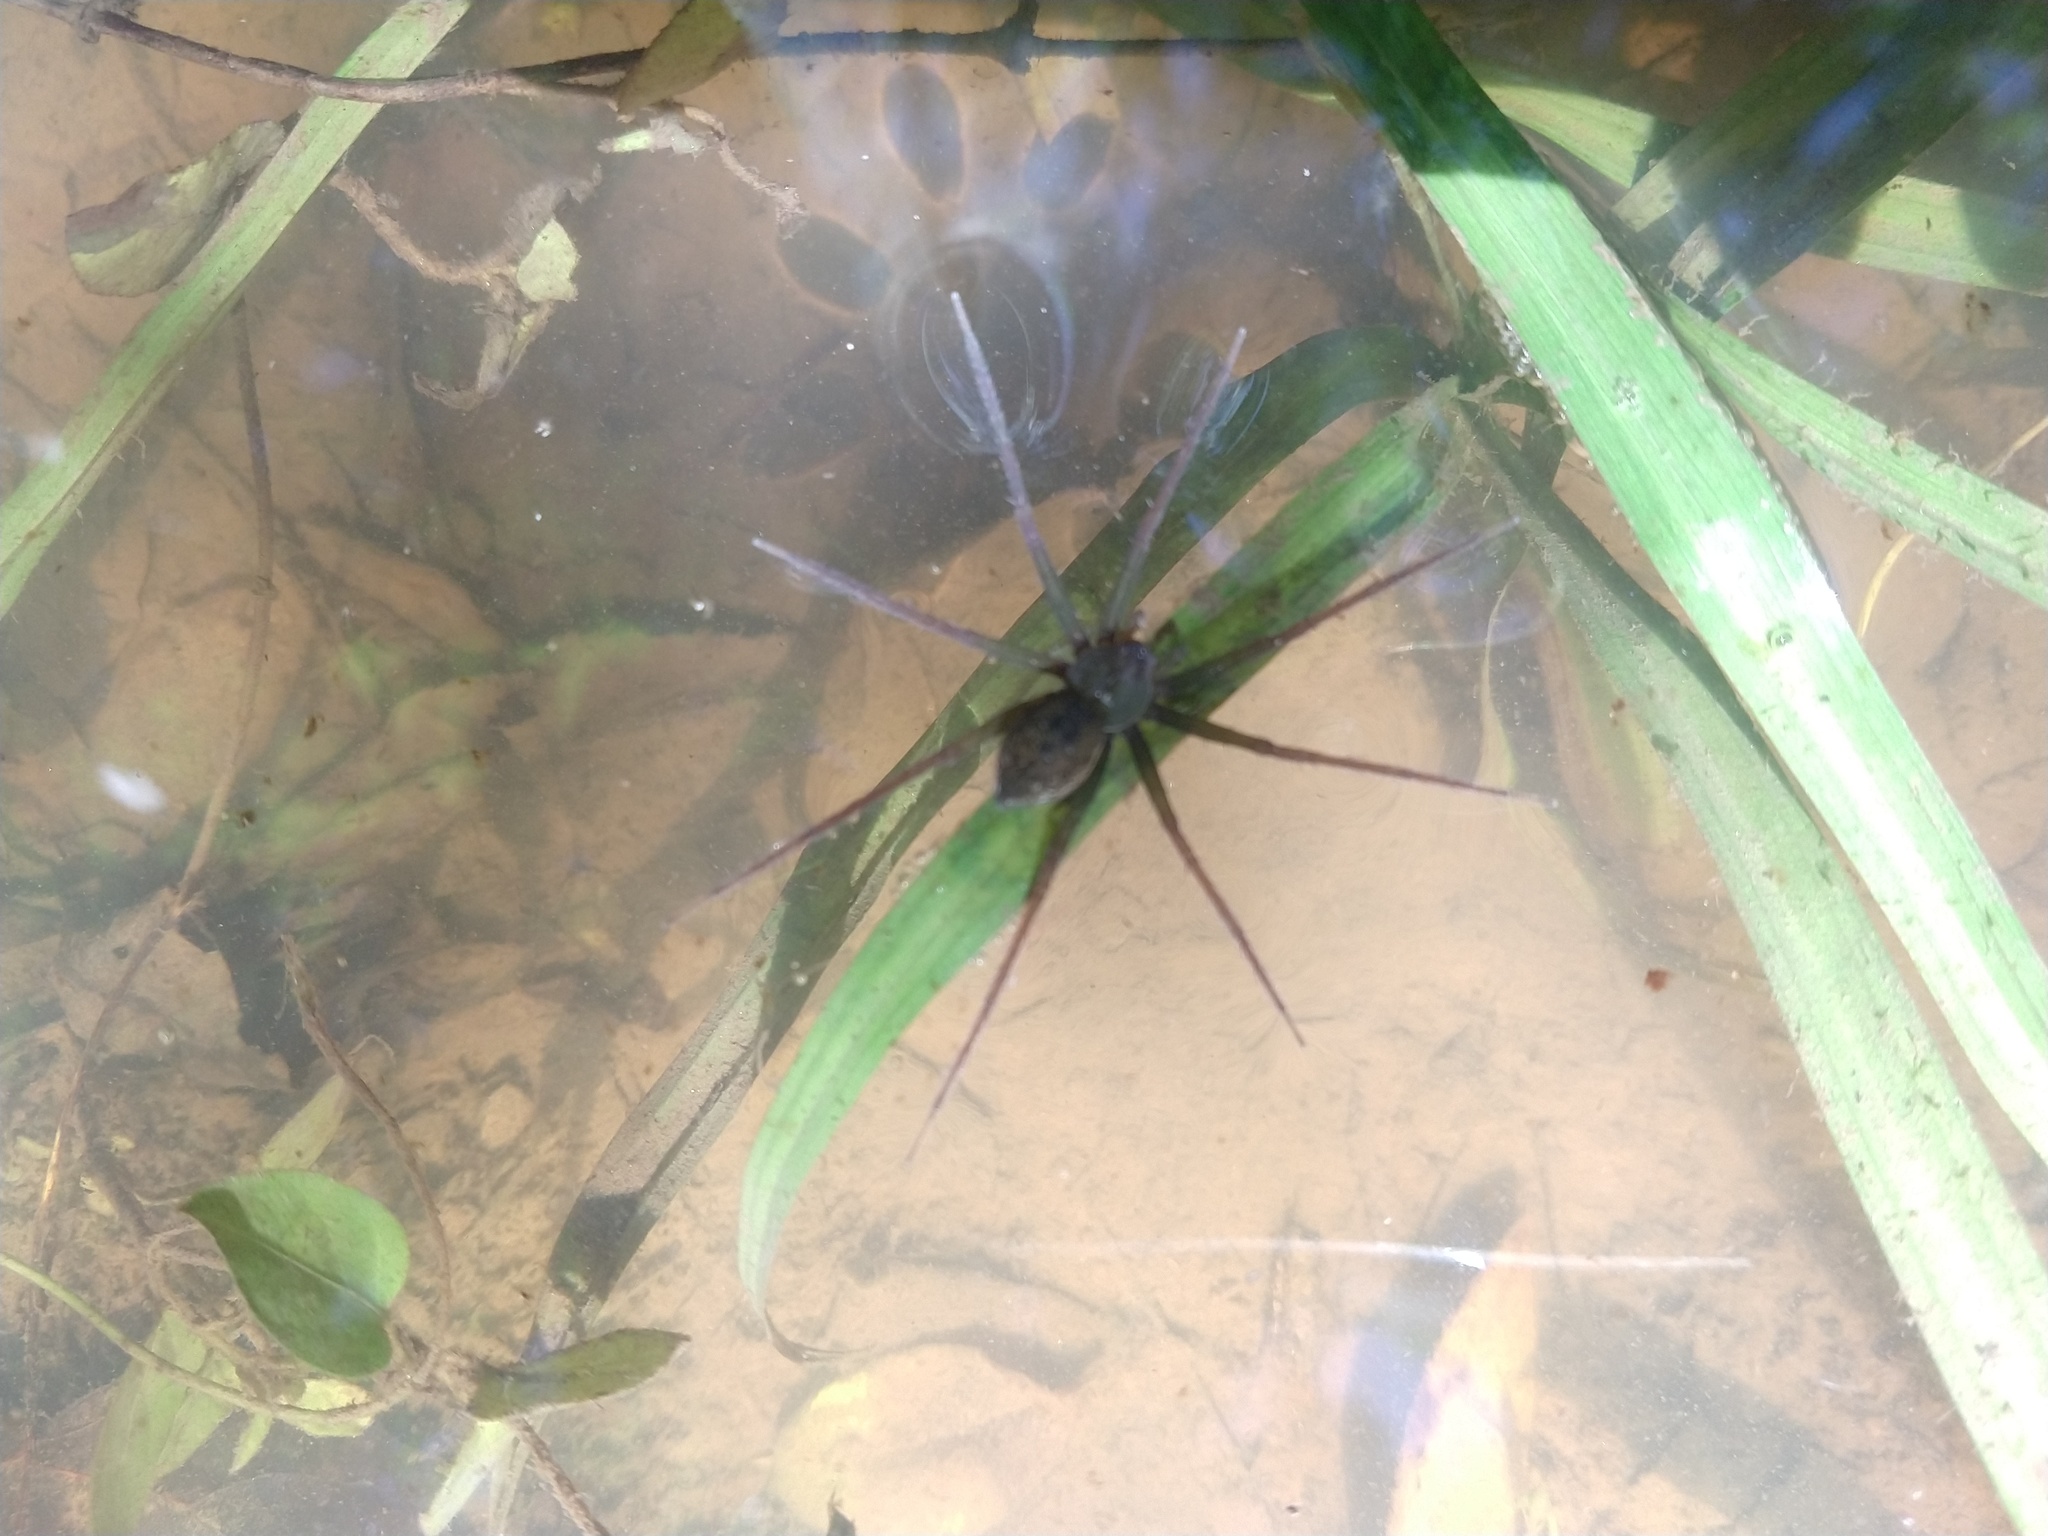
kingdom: Animalia
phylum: Arthropoda
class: Arachnida
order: Araneae
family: Pisauridae
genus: Thaumasia
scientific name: Thaumasia velox
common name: Nursery web spiders
